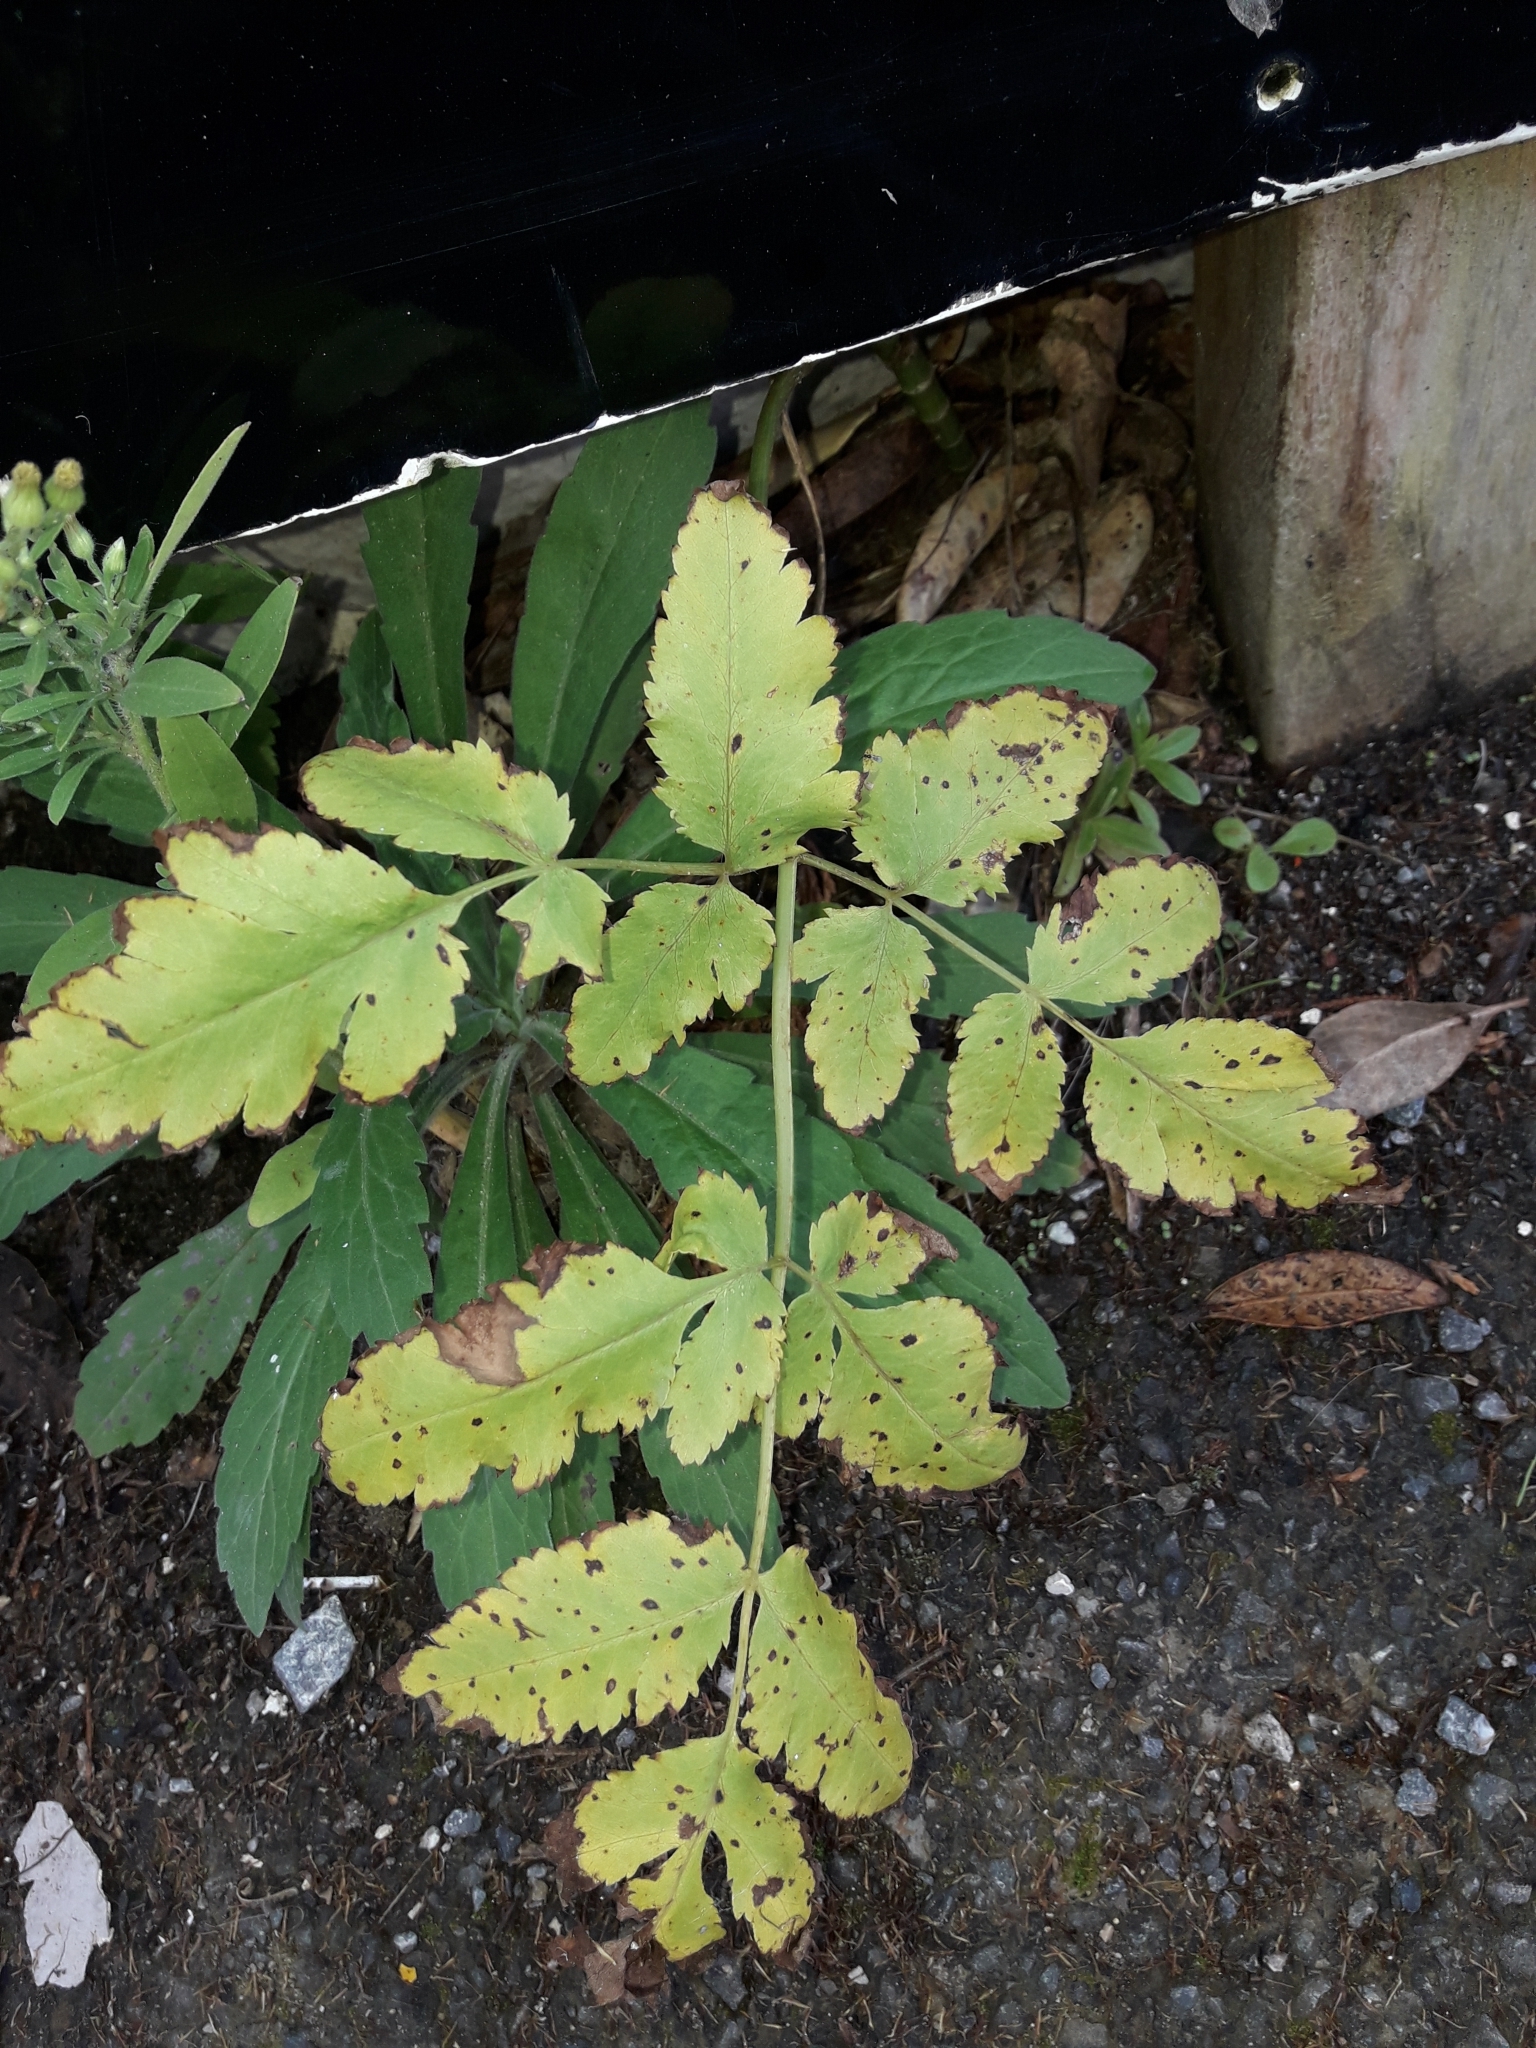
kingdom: Plantae
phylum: Tracheophyta
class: Magnoliopsida
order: Apiales
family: Apiaceae
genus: Daucus
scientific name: Daucus decipiens
